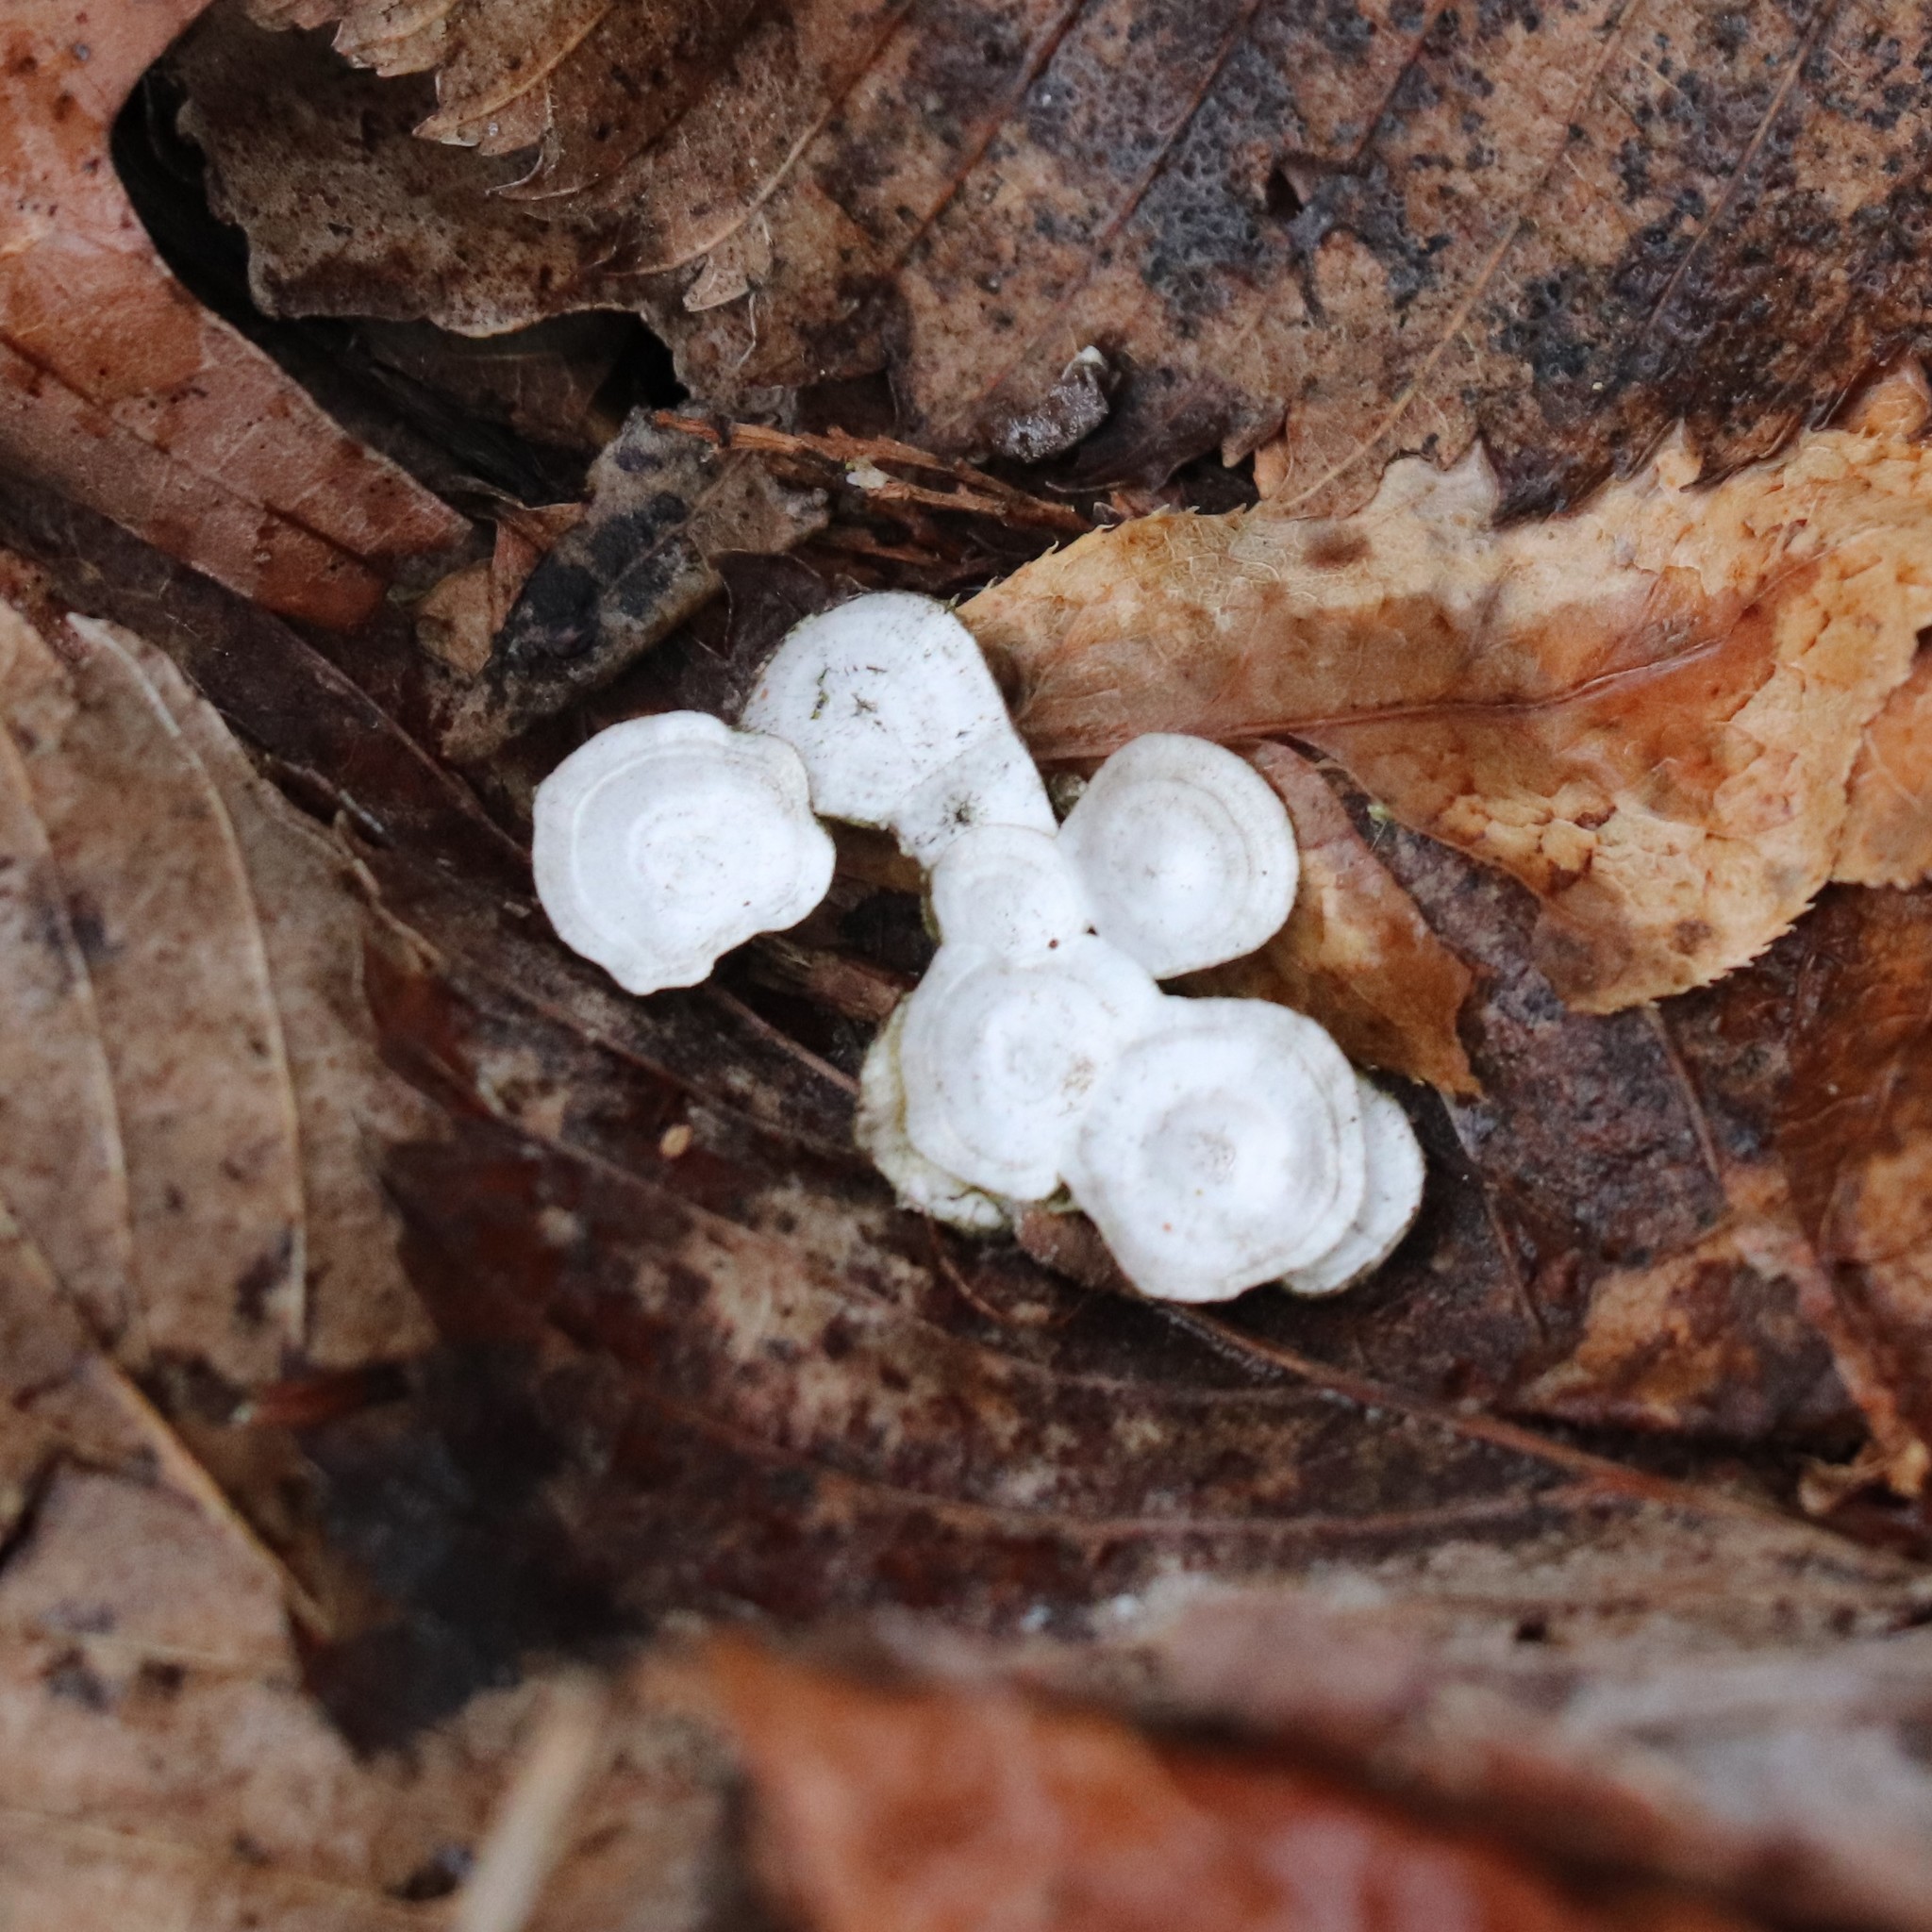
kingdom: Fungi
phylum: Basidiomycota
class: Agaricomycetes
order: Polyporales
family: Polyporaceae
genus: Poronidulus
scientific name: Poronidulus conchifer
